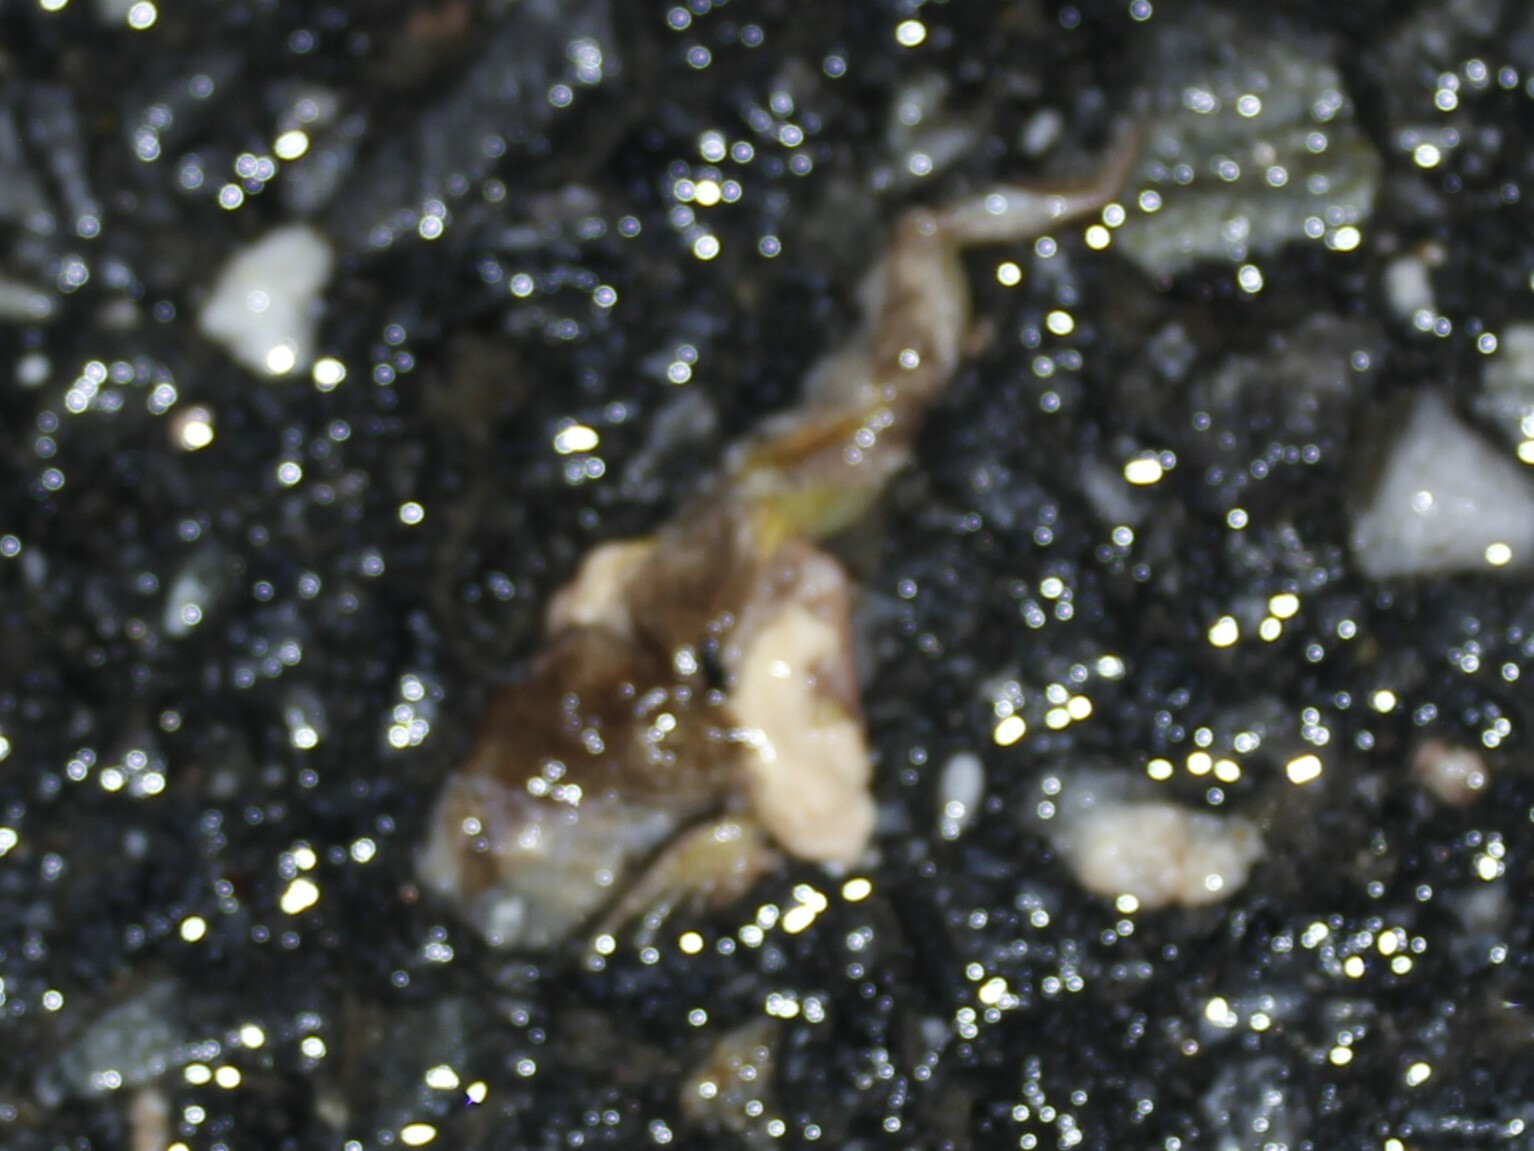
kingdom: Animalia
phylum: Chordata
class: Amphibia
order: Anura
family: Hylidae
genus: Pseudacris
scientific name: Pseudacris crucifer
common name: Spring peeper
